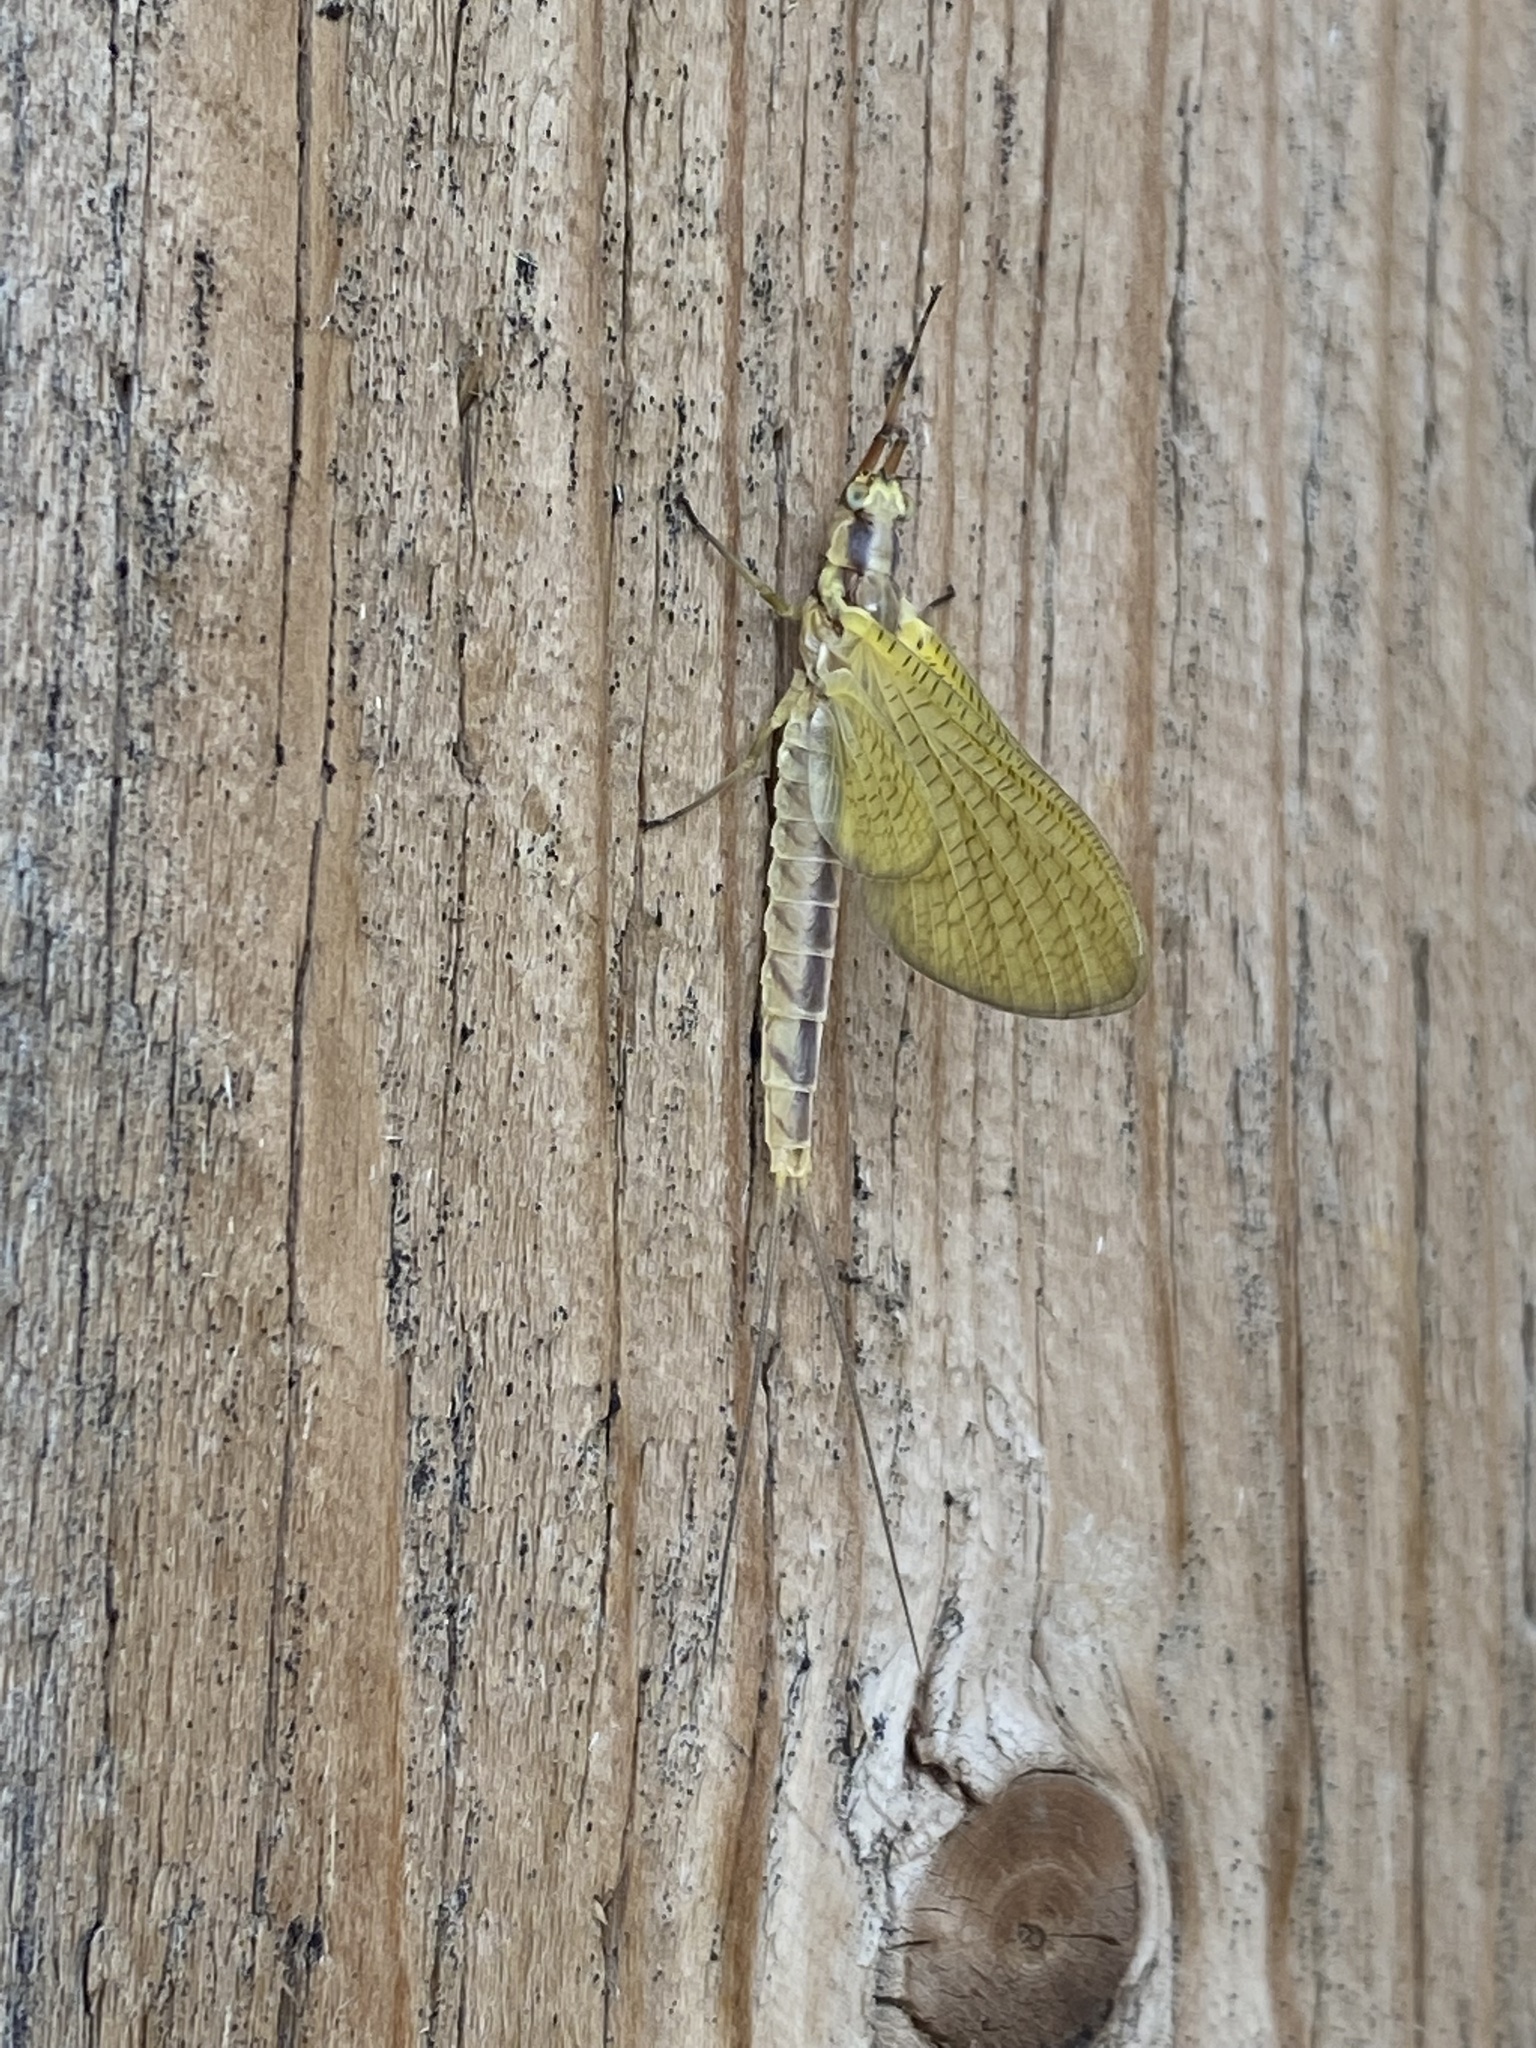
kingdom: Animalia
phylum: Arthropoda
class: Insecta
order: Ephemeroptera
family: Ephemeridae
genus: Hexagenia
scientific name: Hexagenia limbata
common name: Giant mayfly
